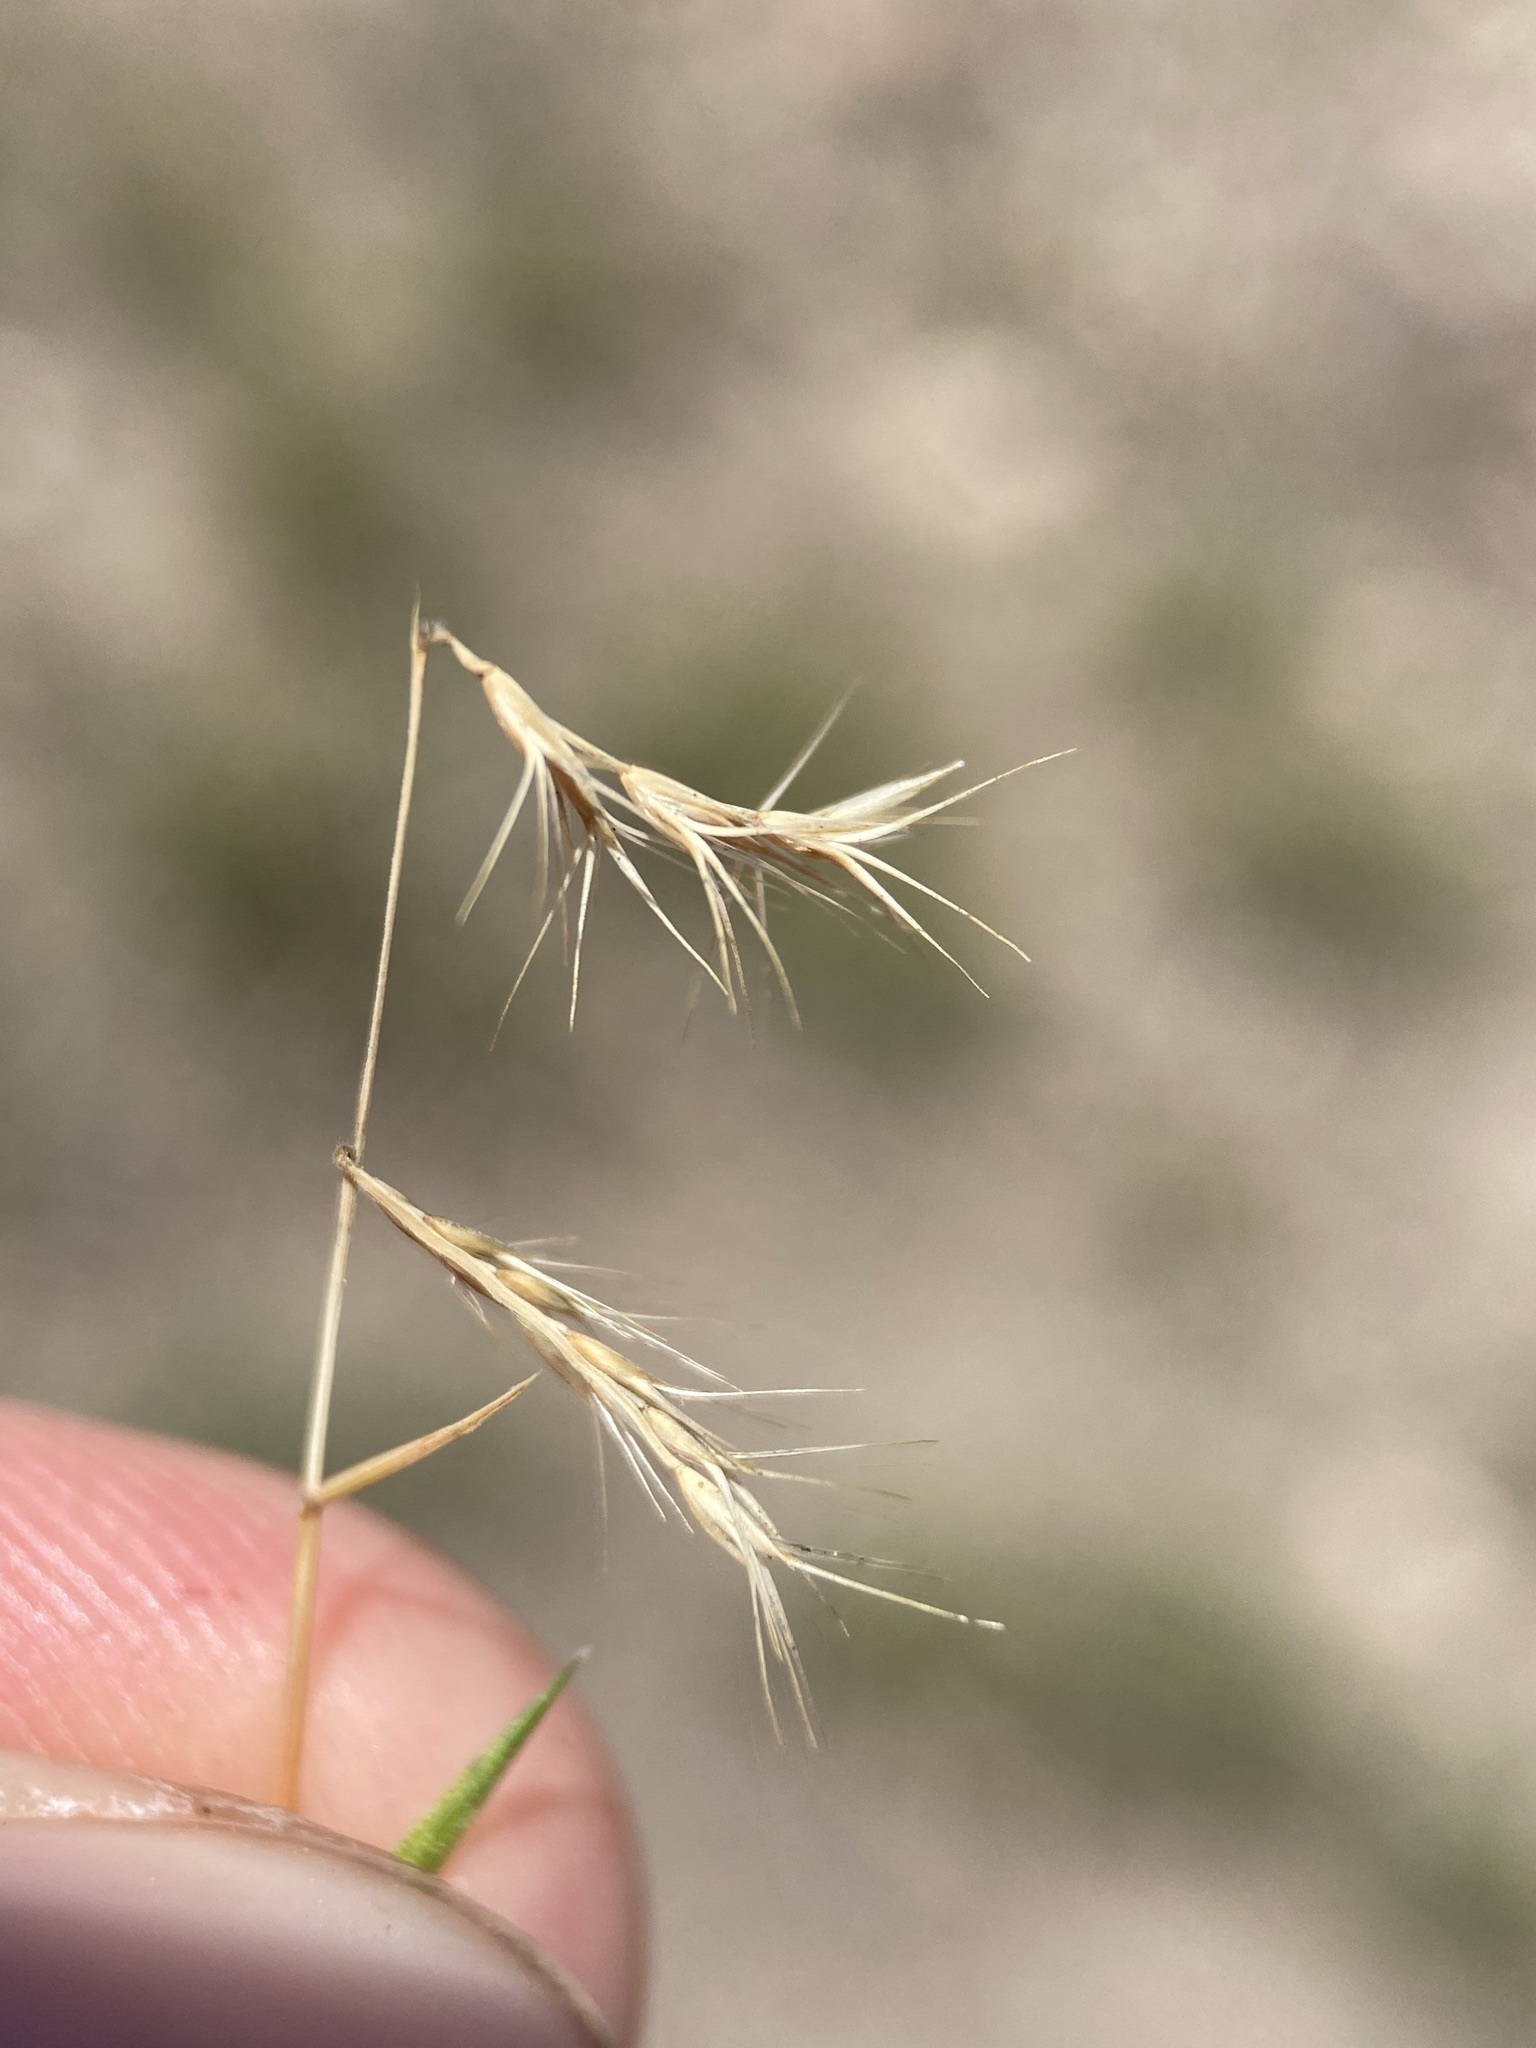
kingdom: Plantae
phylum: Tracheophyta
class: Liliopsida
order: Poales
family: Poaceae
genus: Bouteloua
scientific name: Bouteloua trifida
